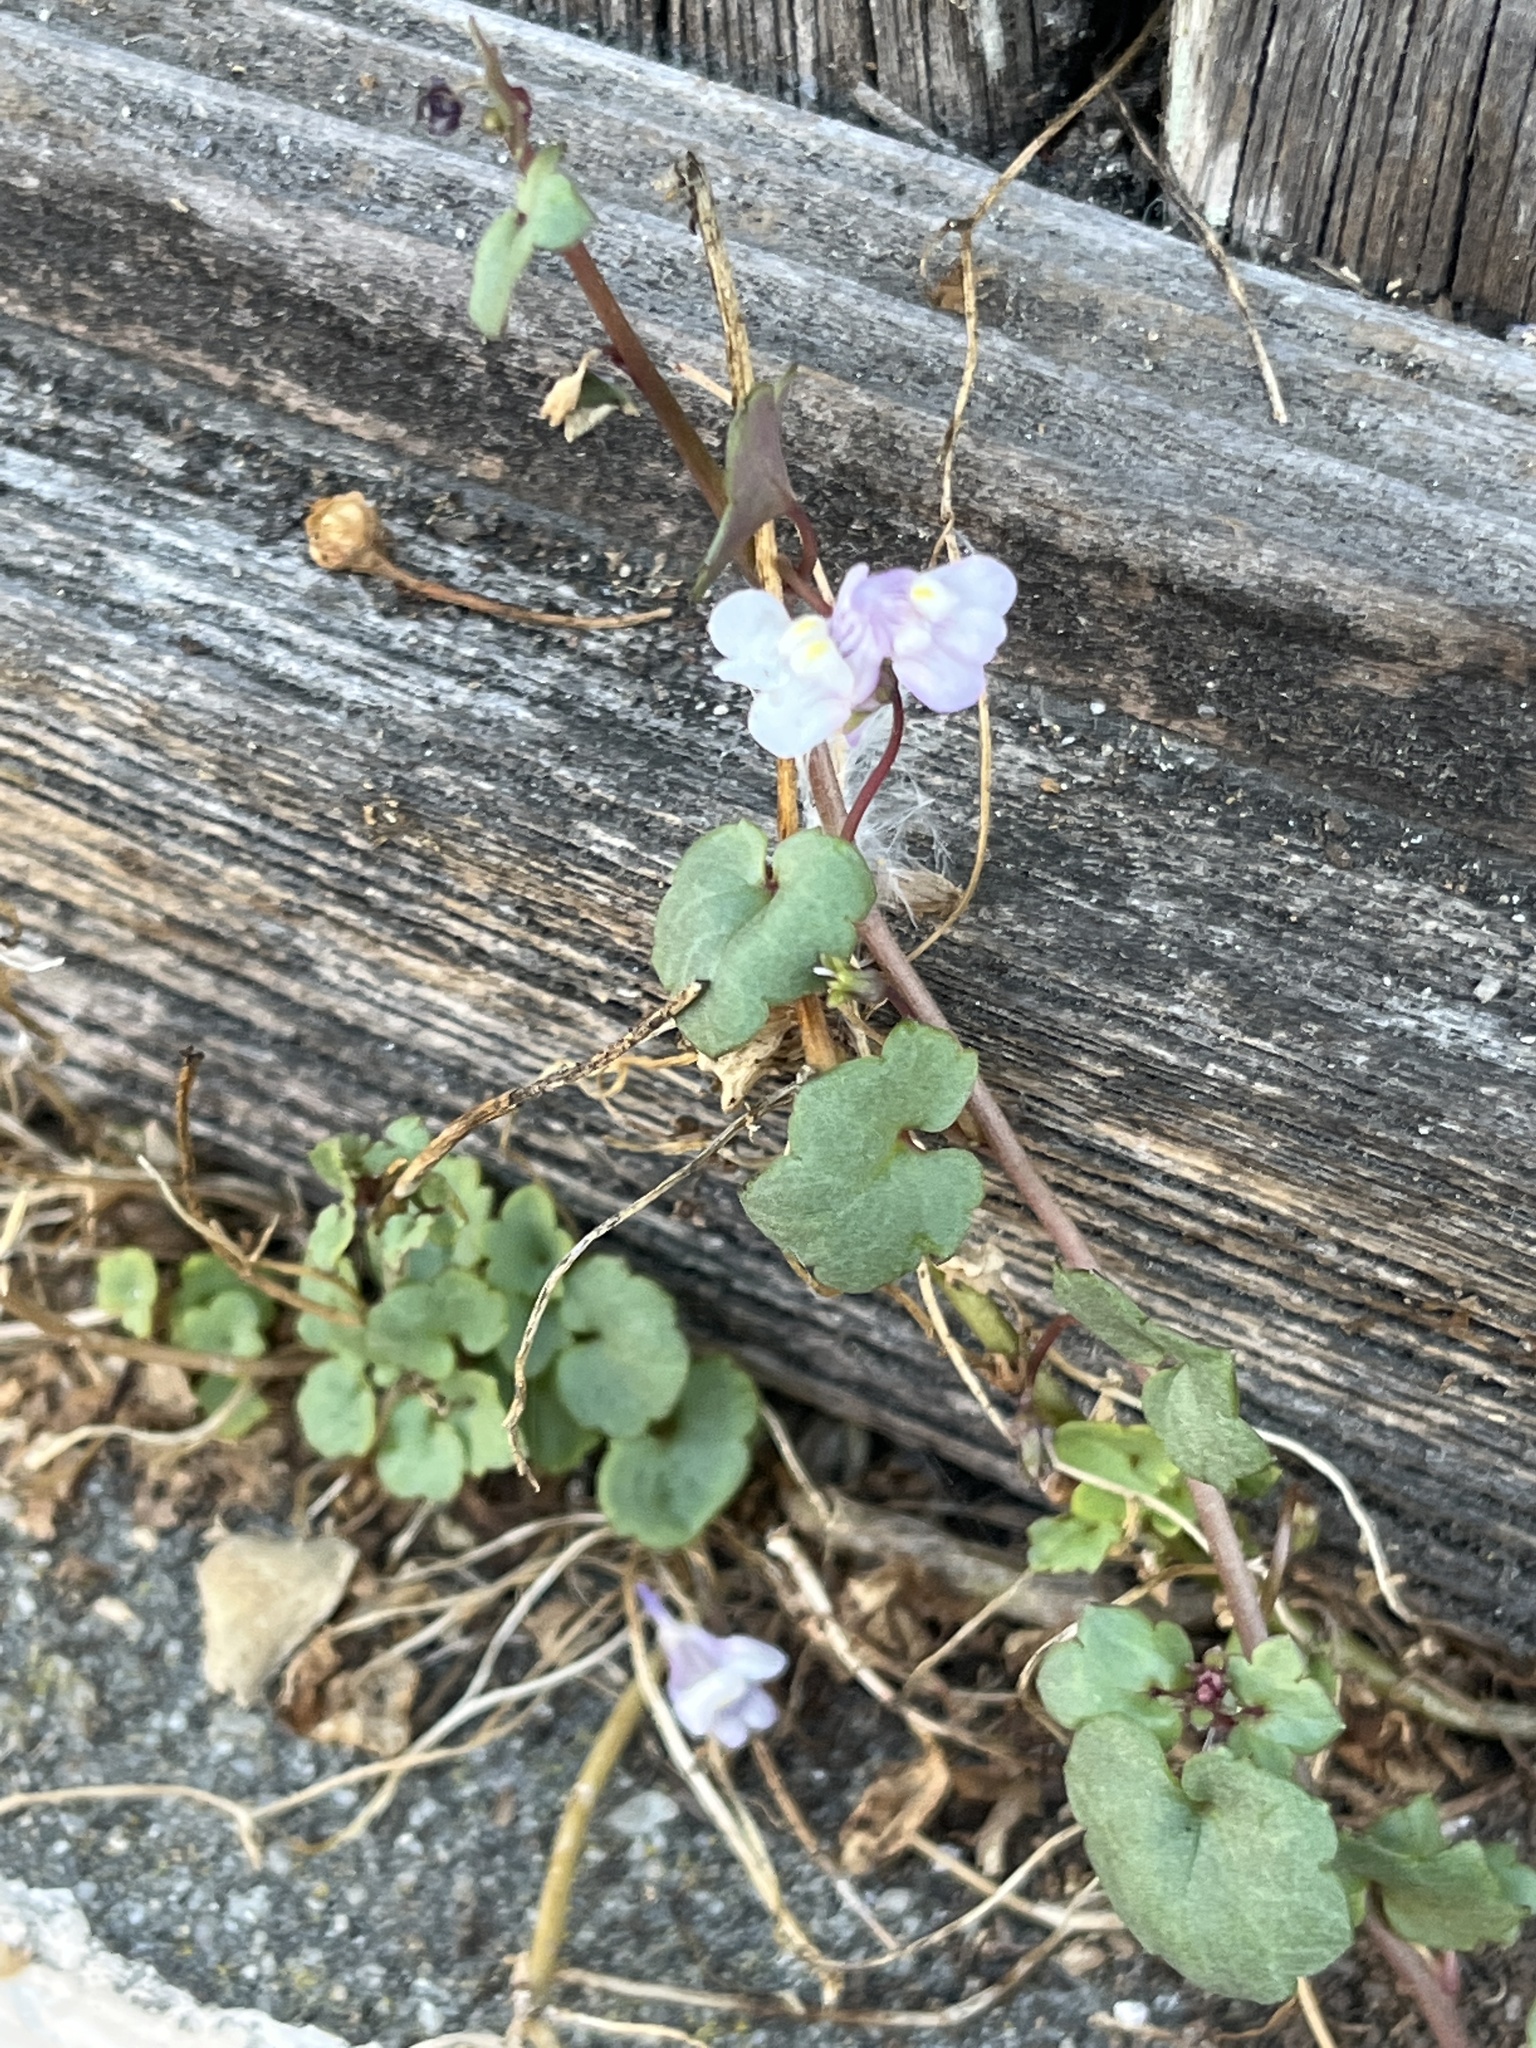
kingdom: Plantae
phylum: Tracheophyta
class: Magnoliopsida
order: Lamiales
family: Plantaginaceae
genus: Cymbalaria
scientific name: Cymbalaria muralis
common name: Ivy-leaved toadflax
